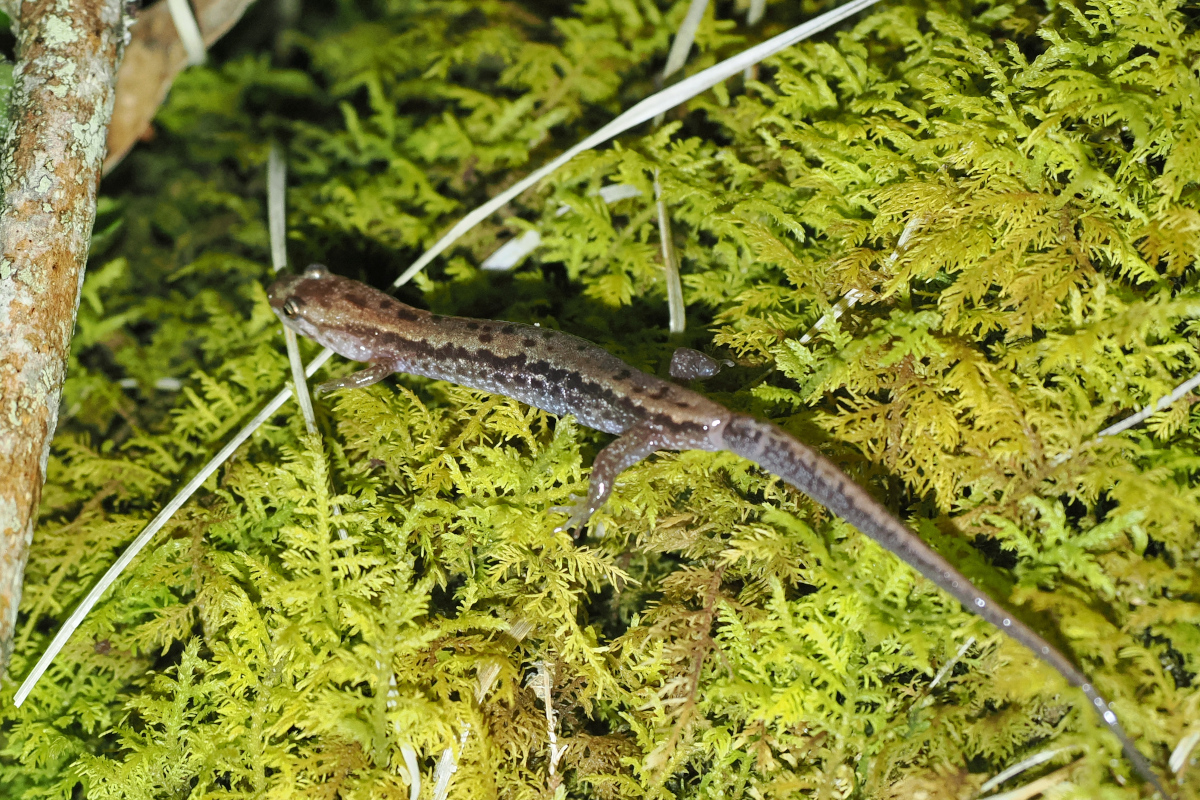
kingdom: Animalia
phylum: Chordata
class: Amphibia
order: Caudata
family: Plethodontidae
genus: Desmognathus
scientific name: Desmognathus orestes
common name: Blue ridge dusky salamander
